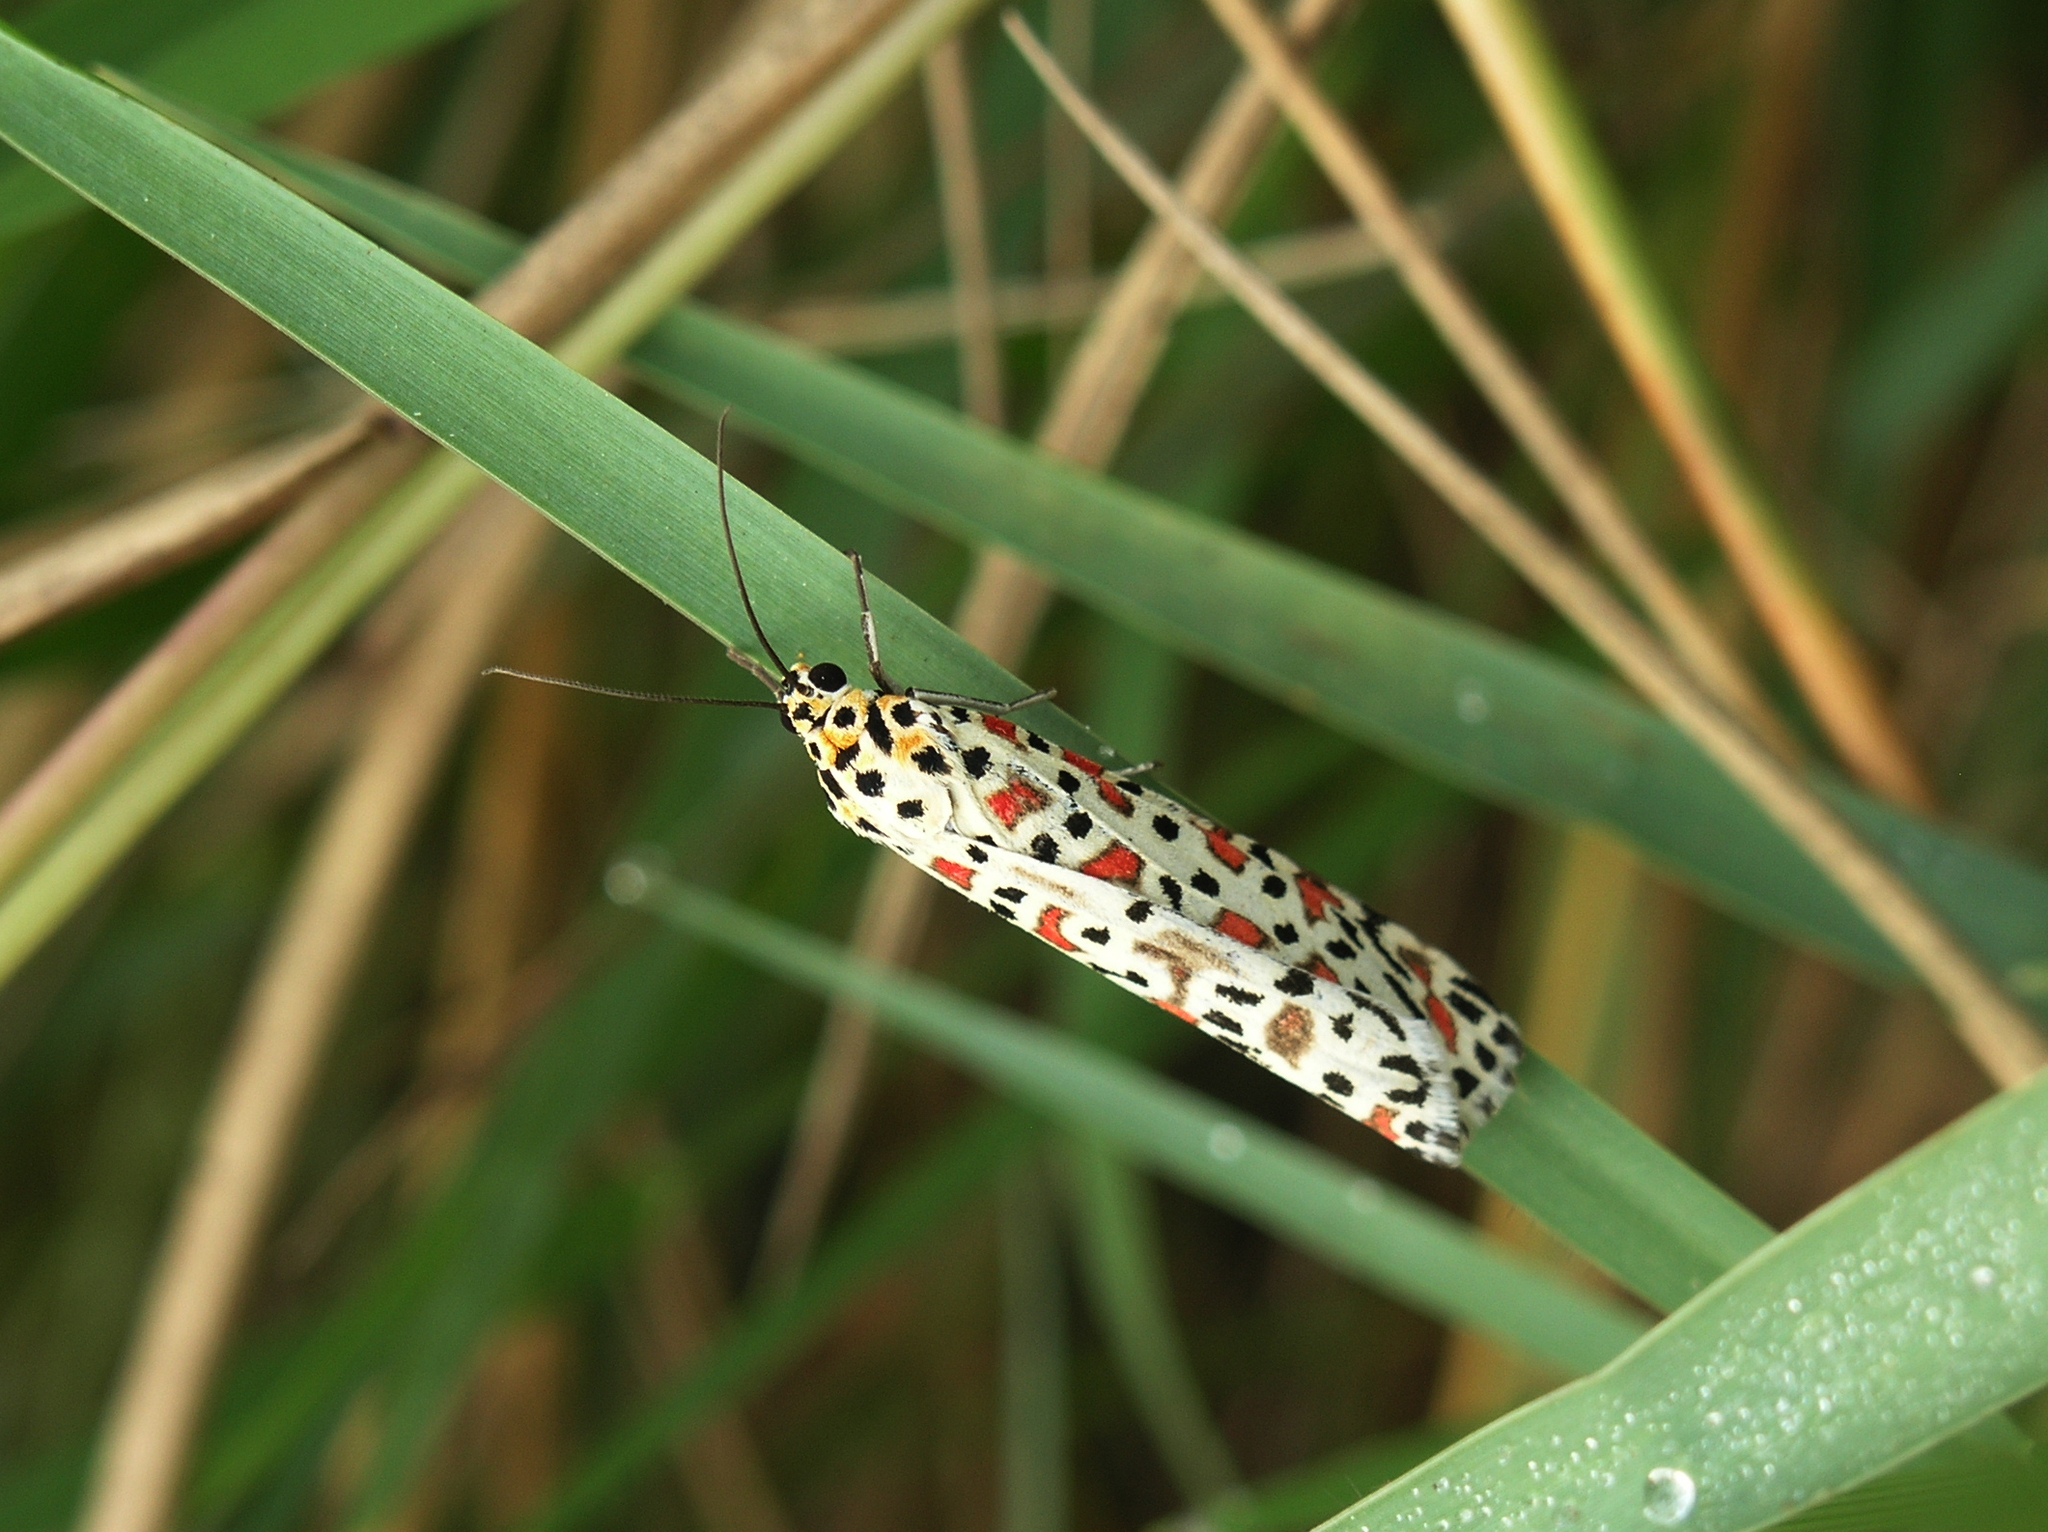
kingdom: Animalia
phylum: Arthropoda
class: Insecta
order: Lepidoptera
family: Erebidae
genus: Utetheisa
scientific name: Utetheisa lotrix
